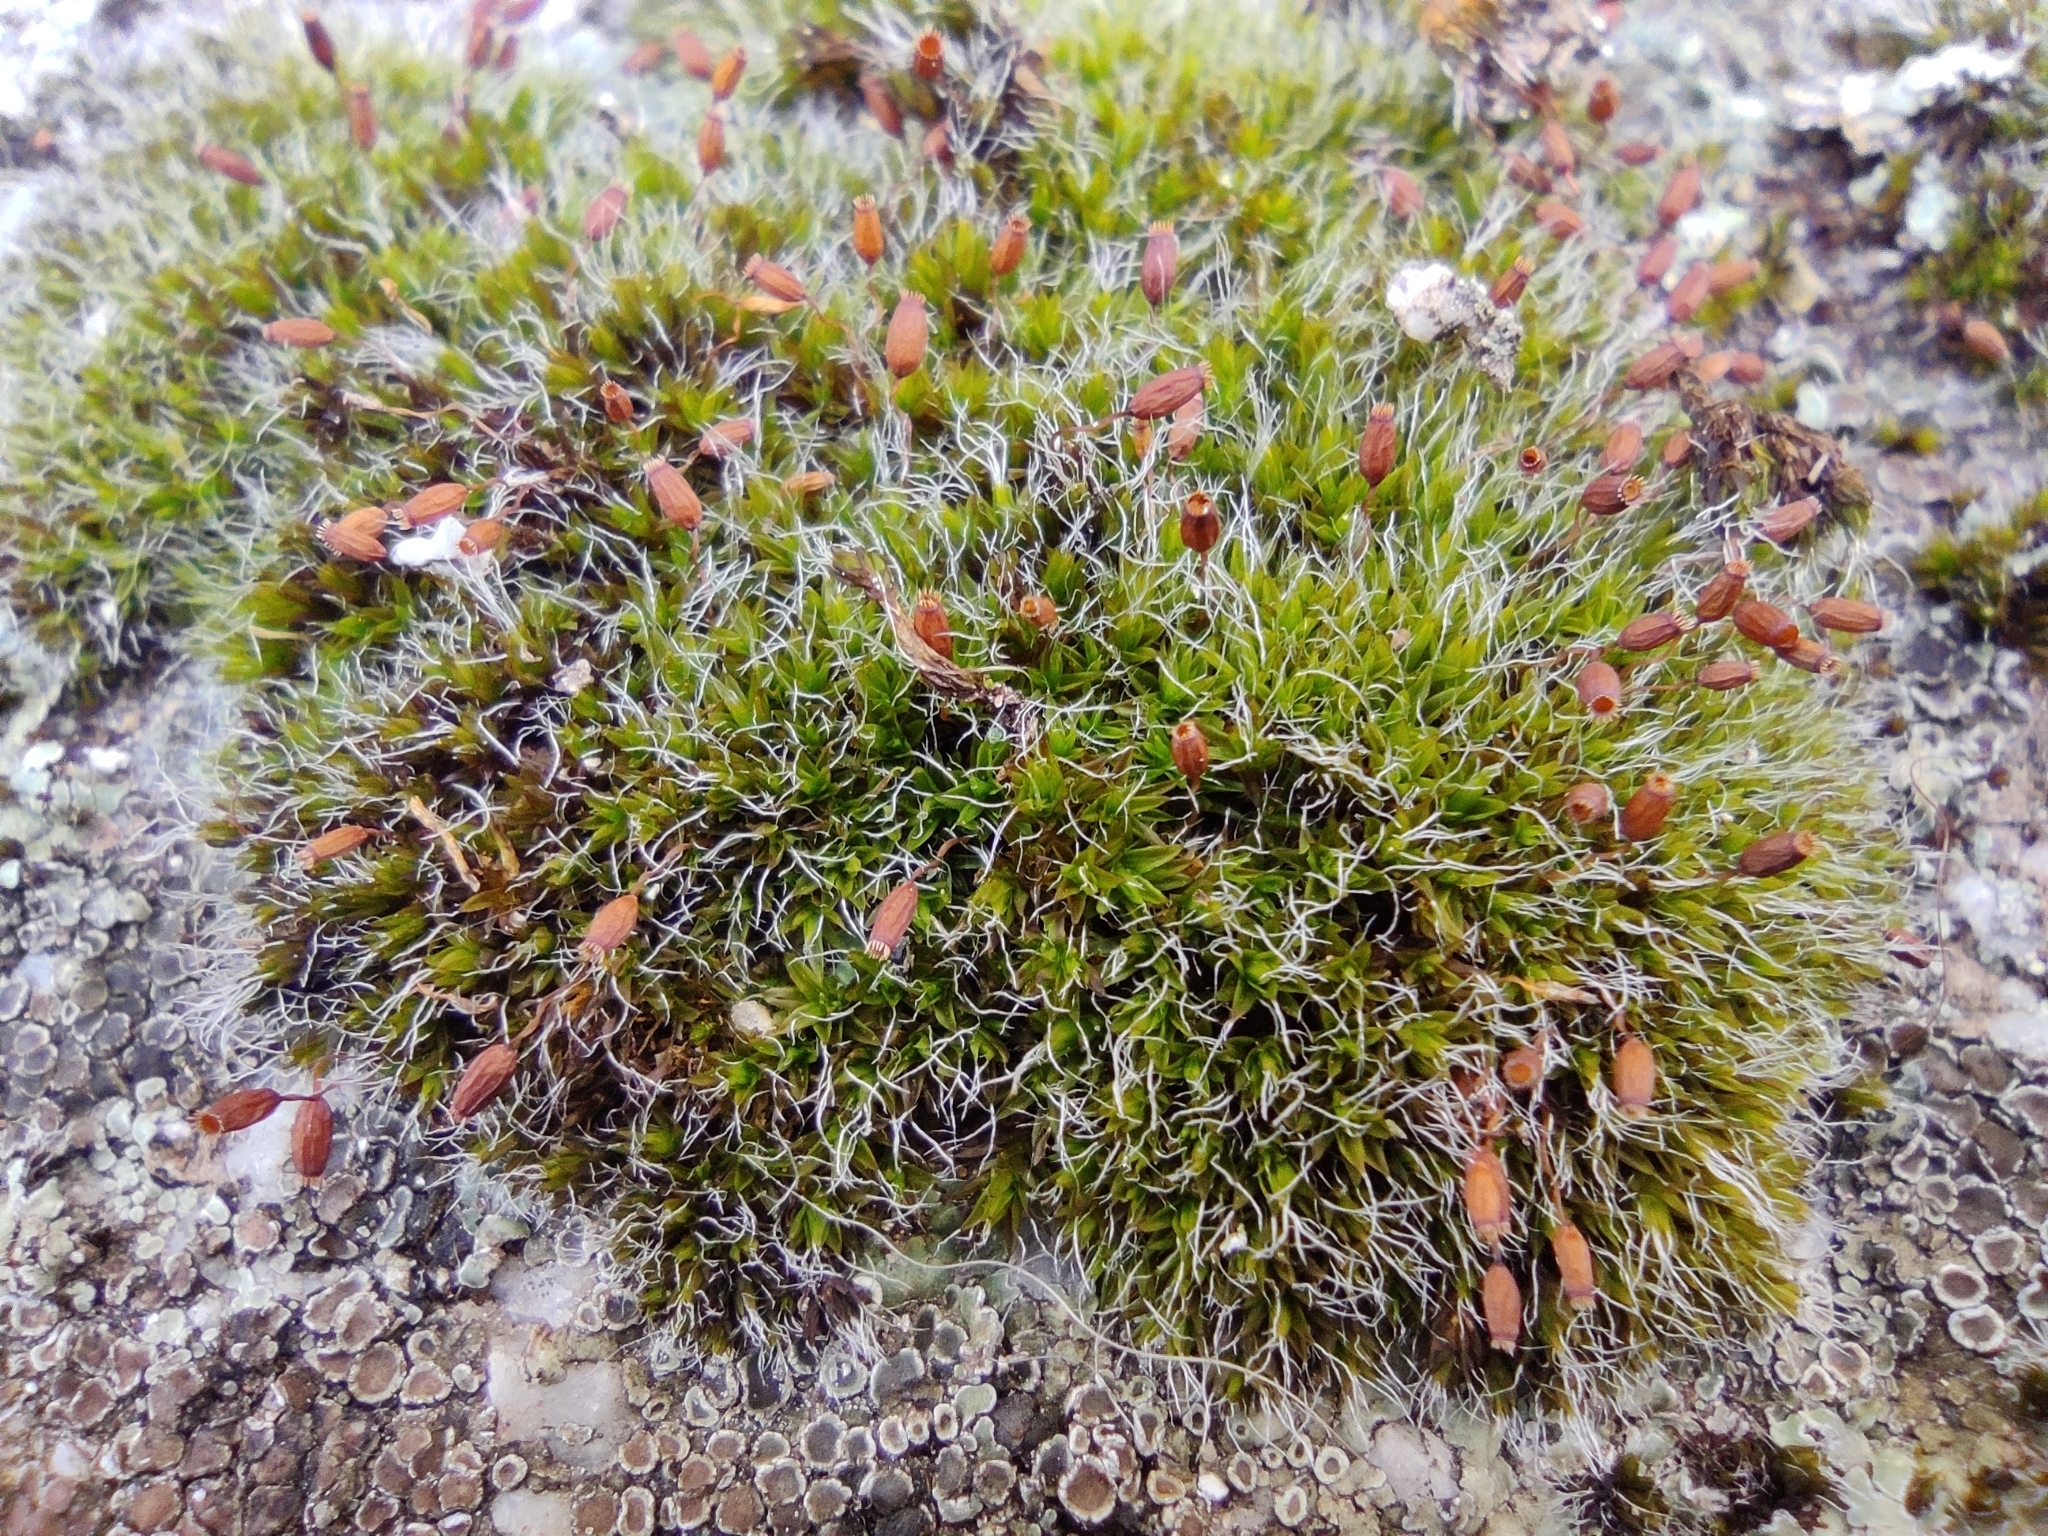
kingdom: Plantae
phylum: Bryophyta
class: Bryopsida
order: Grimmiales
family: Grimmiaceae
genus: Grimmia
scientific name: Grimmia pulvinata
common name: Grey-cushioned grimmia
